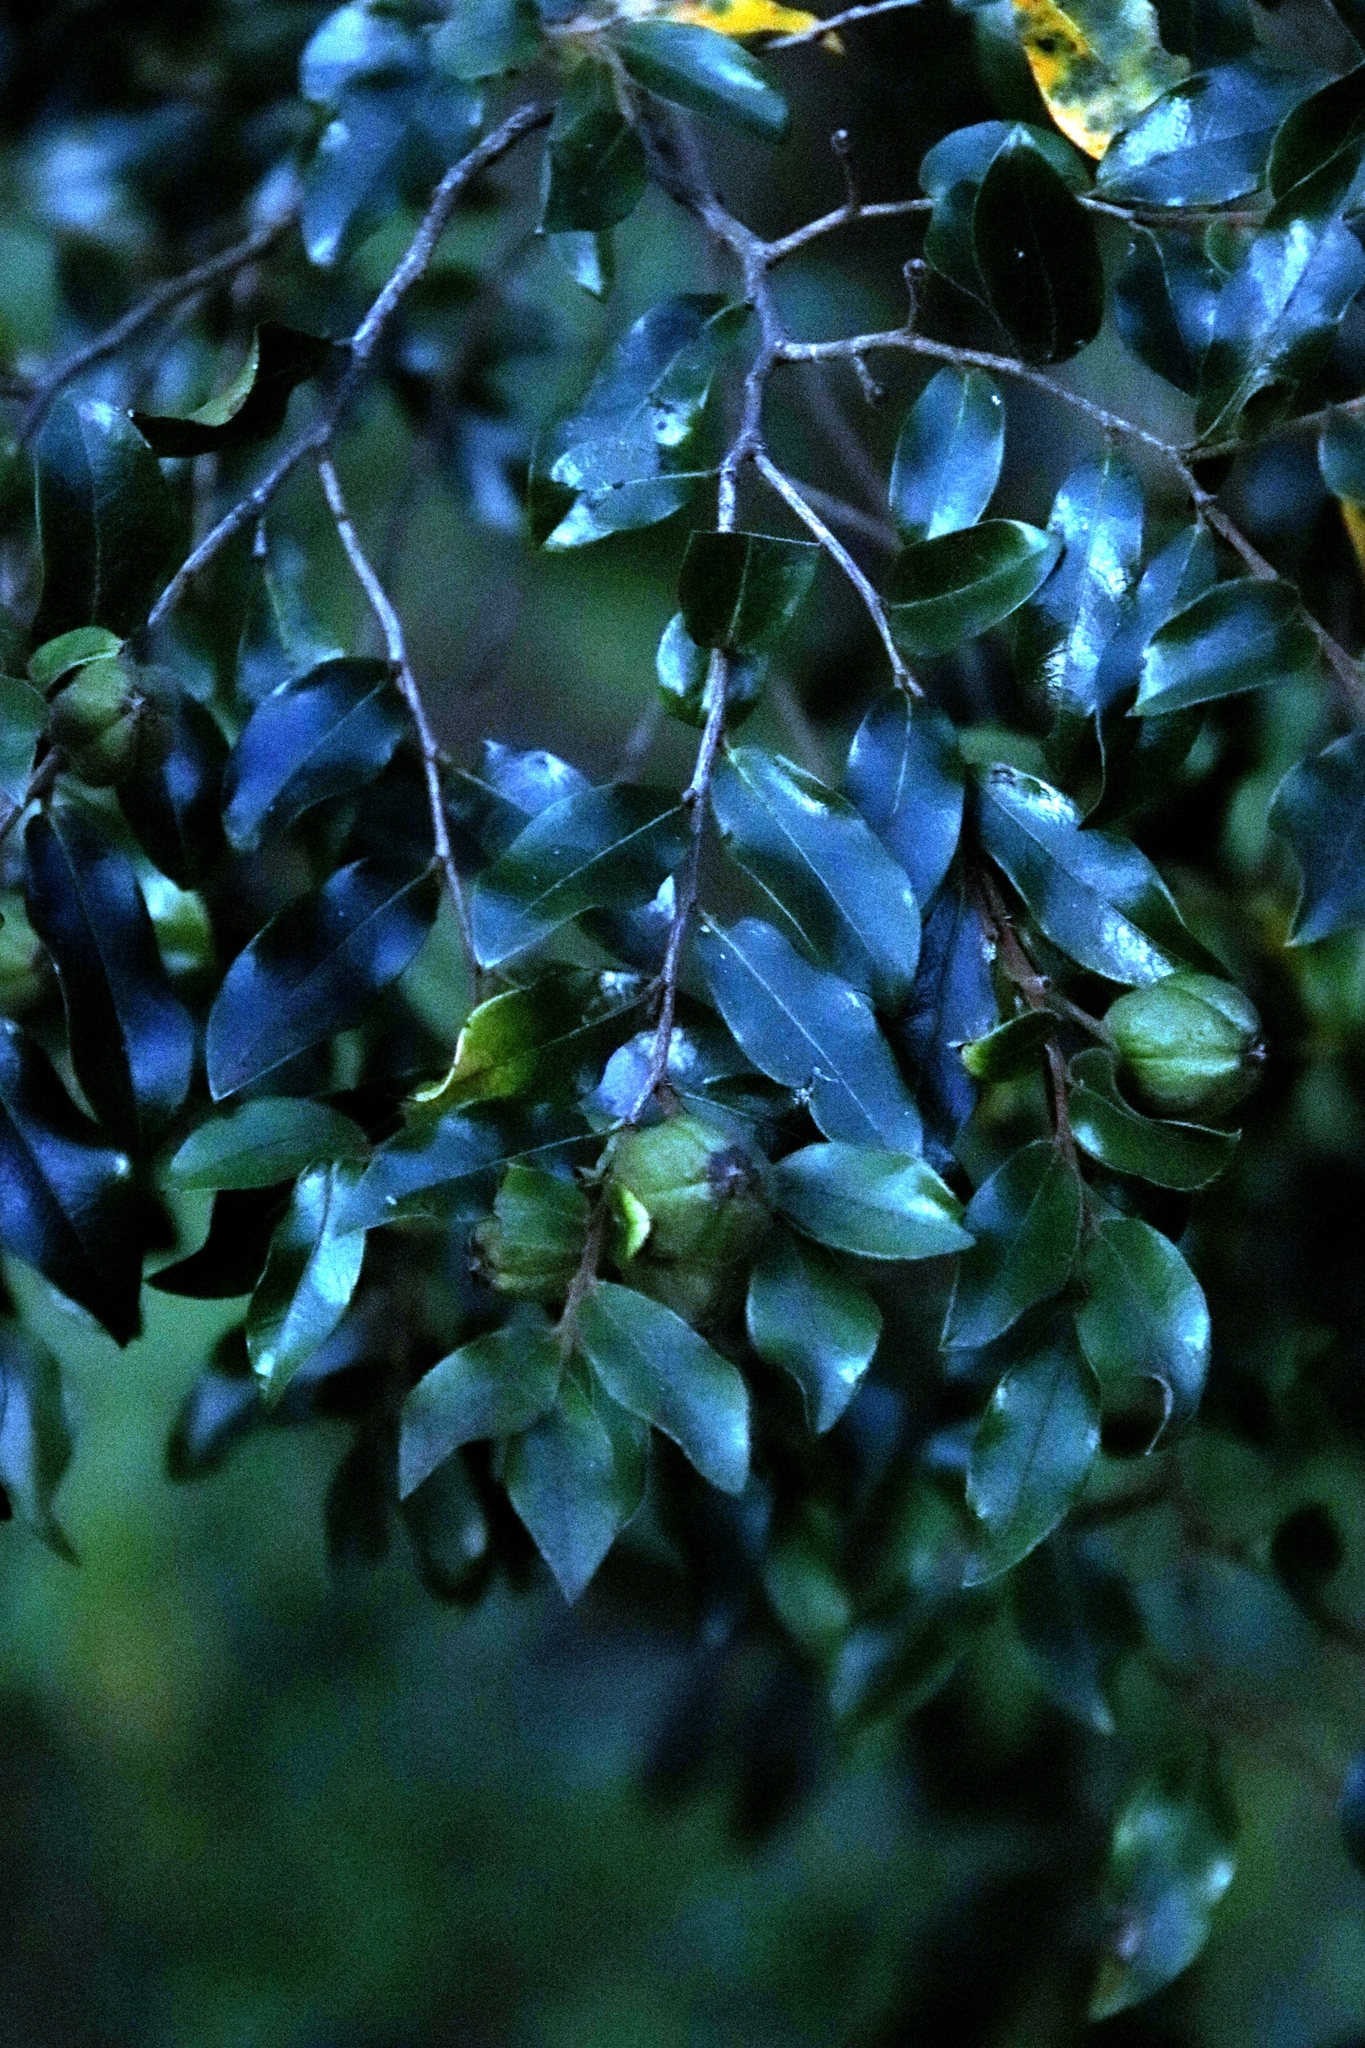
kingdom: Plantae
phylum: Tracheophyta
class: Magnoliopsida
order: Ericales
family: Ebenaceae
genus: Diospyros
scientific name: Diospyros whyteana
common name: Bladder-nut
